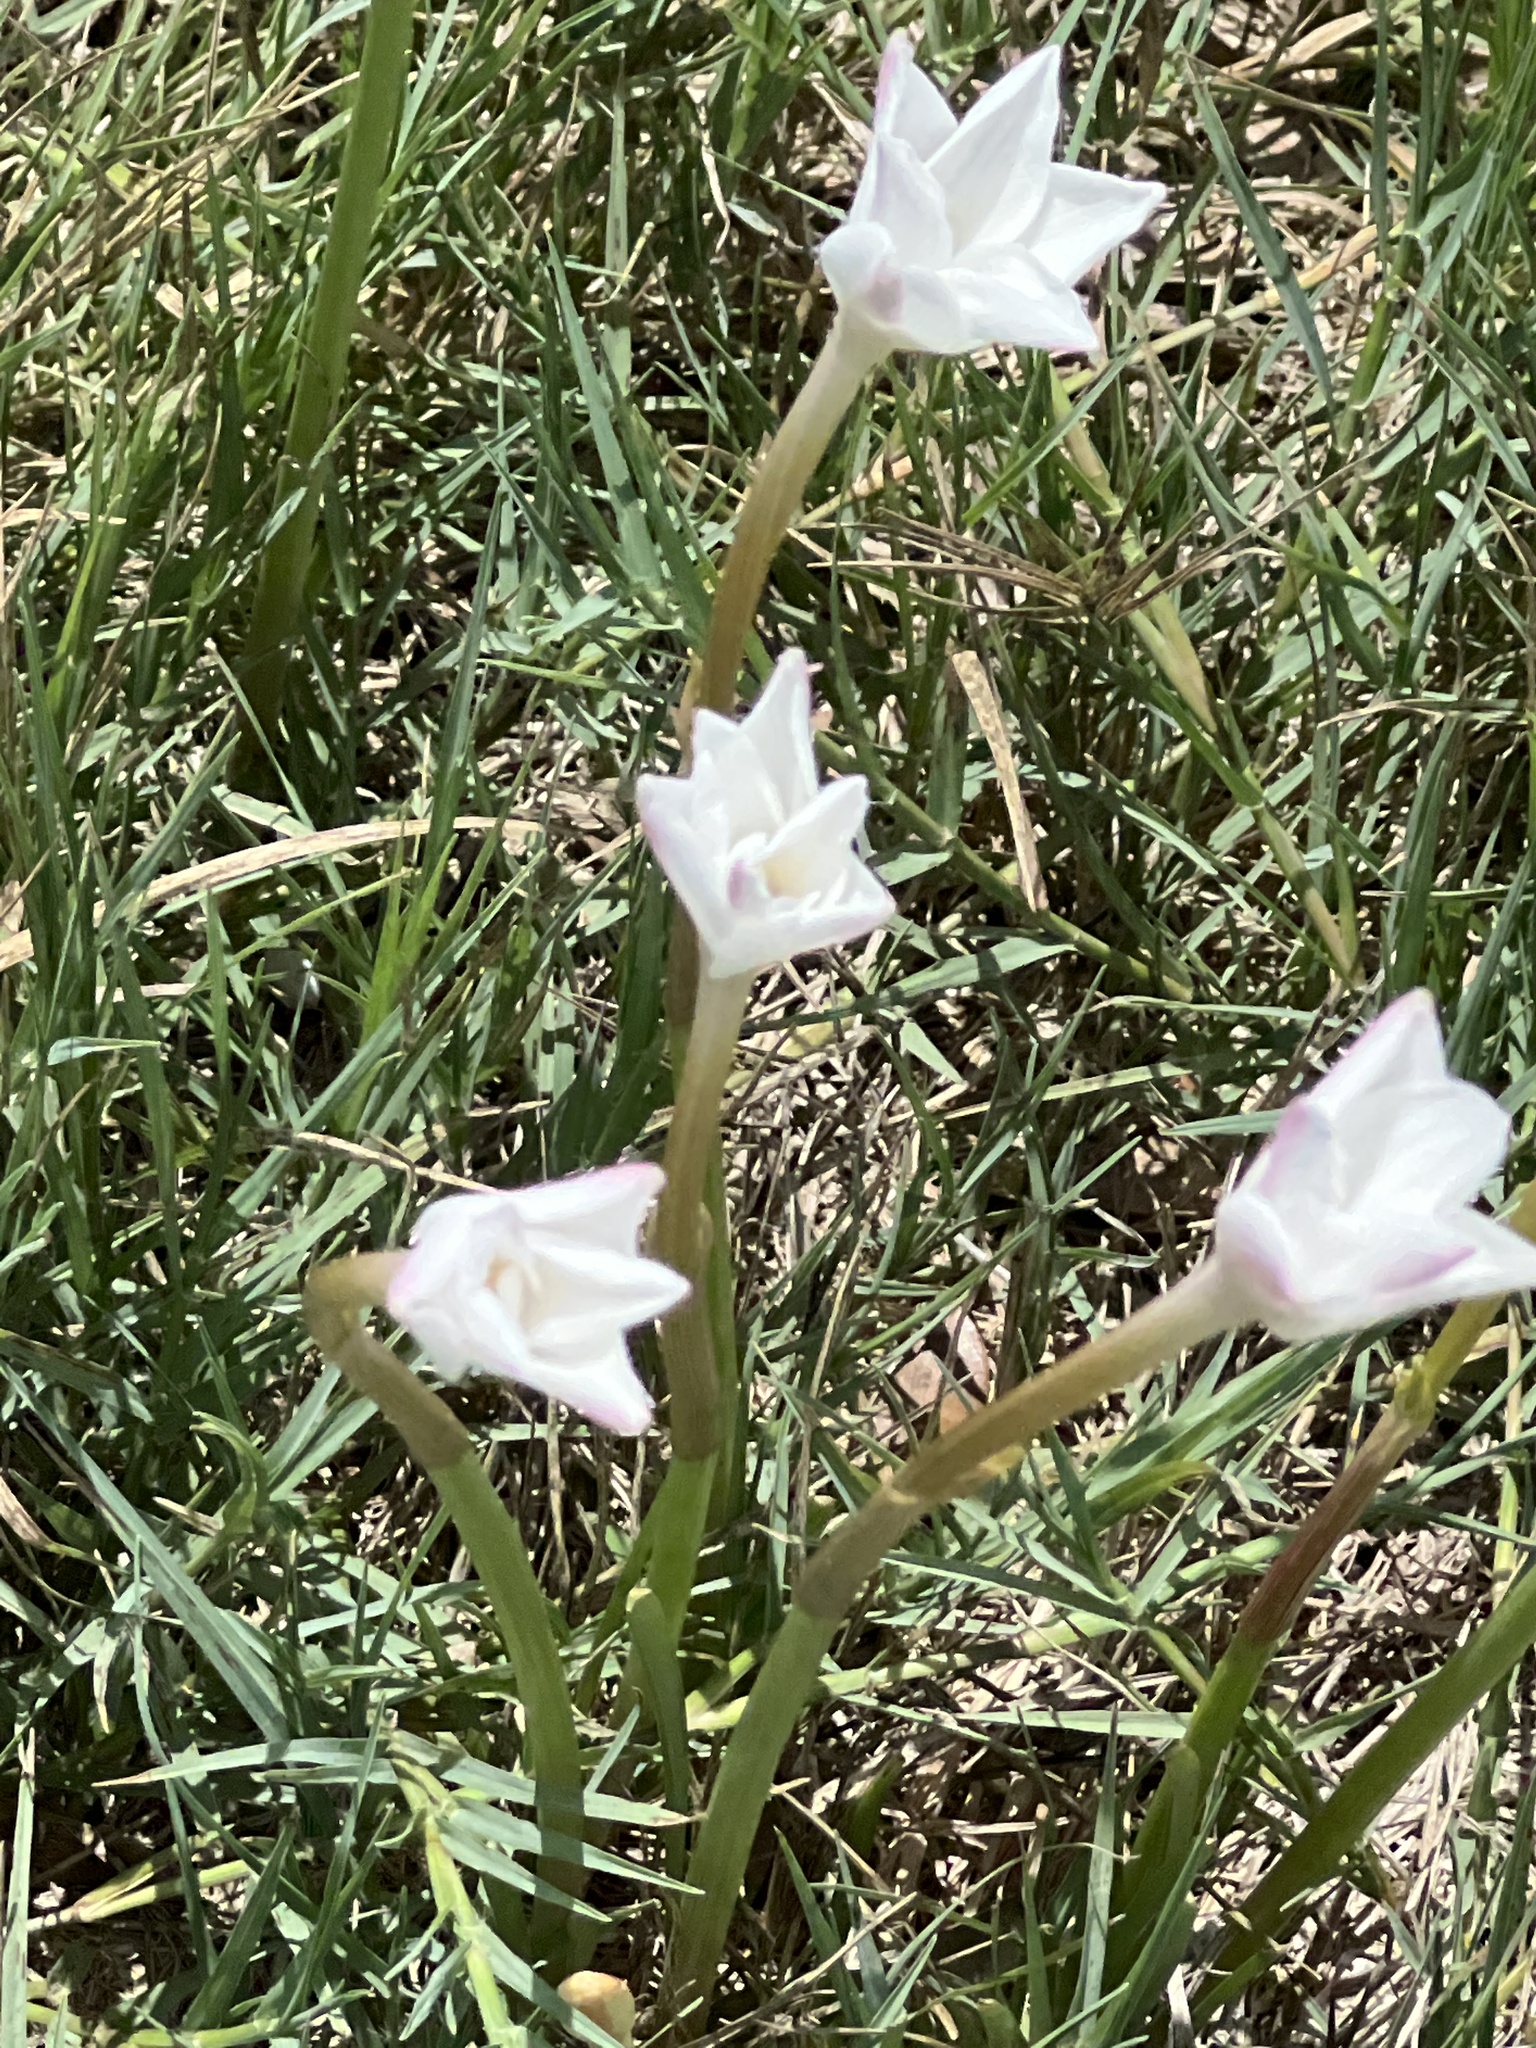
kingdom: Plantae
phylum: Tracheophyta
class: Liliopsida
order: Asparagales
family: Amaryllidaceae
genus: Zephyranthes
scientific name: Zephyranthes chlorosolen
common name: Evening rain-lily
